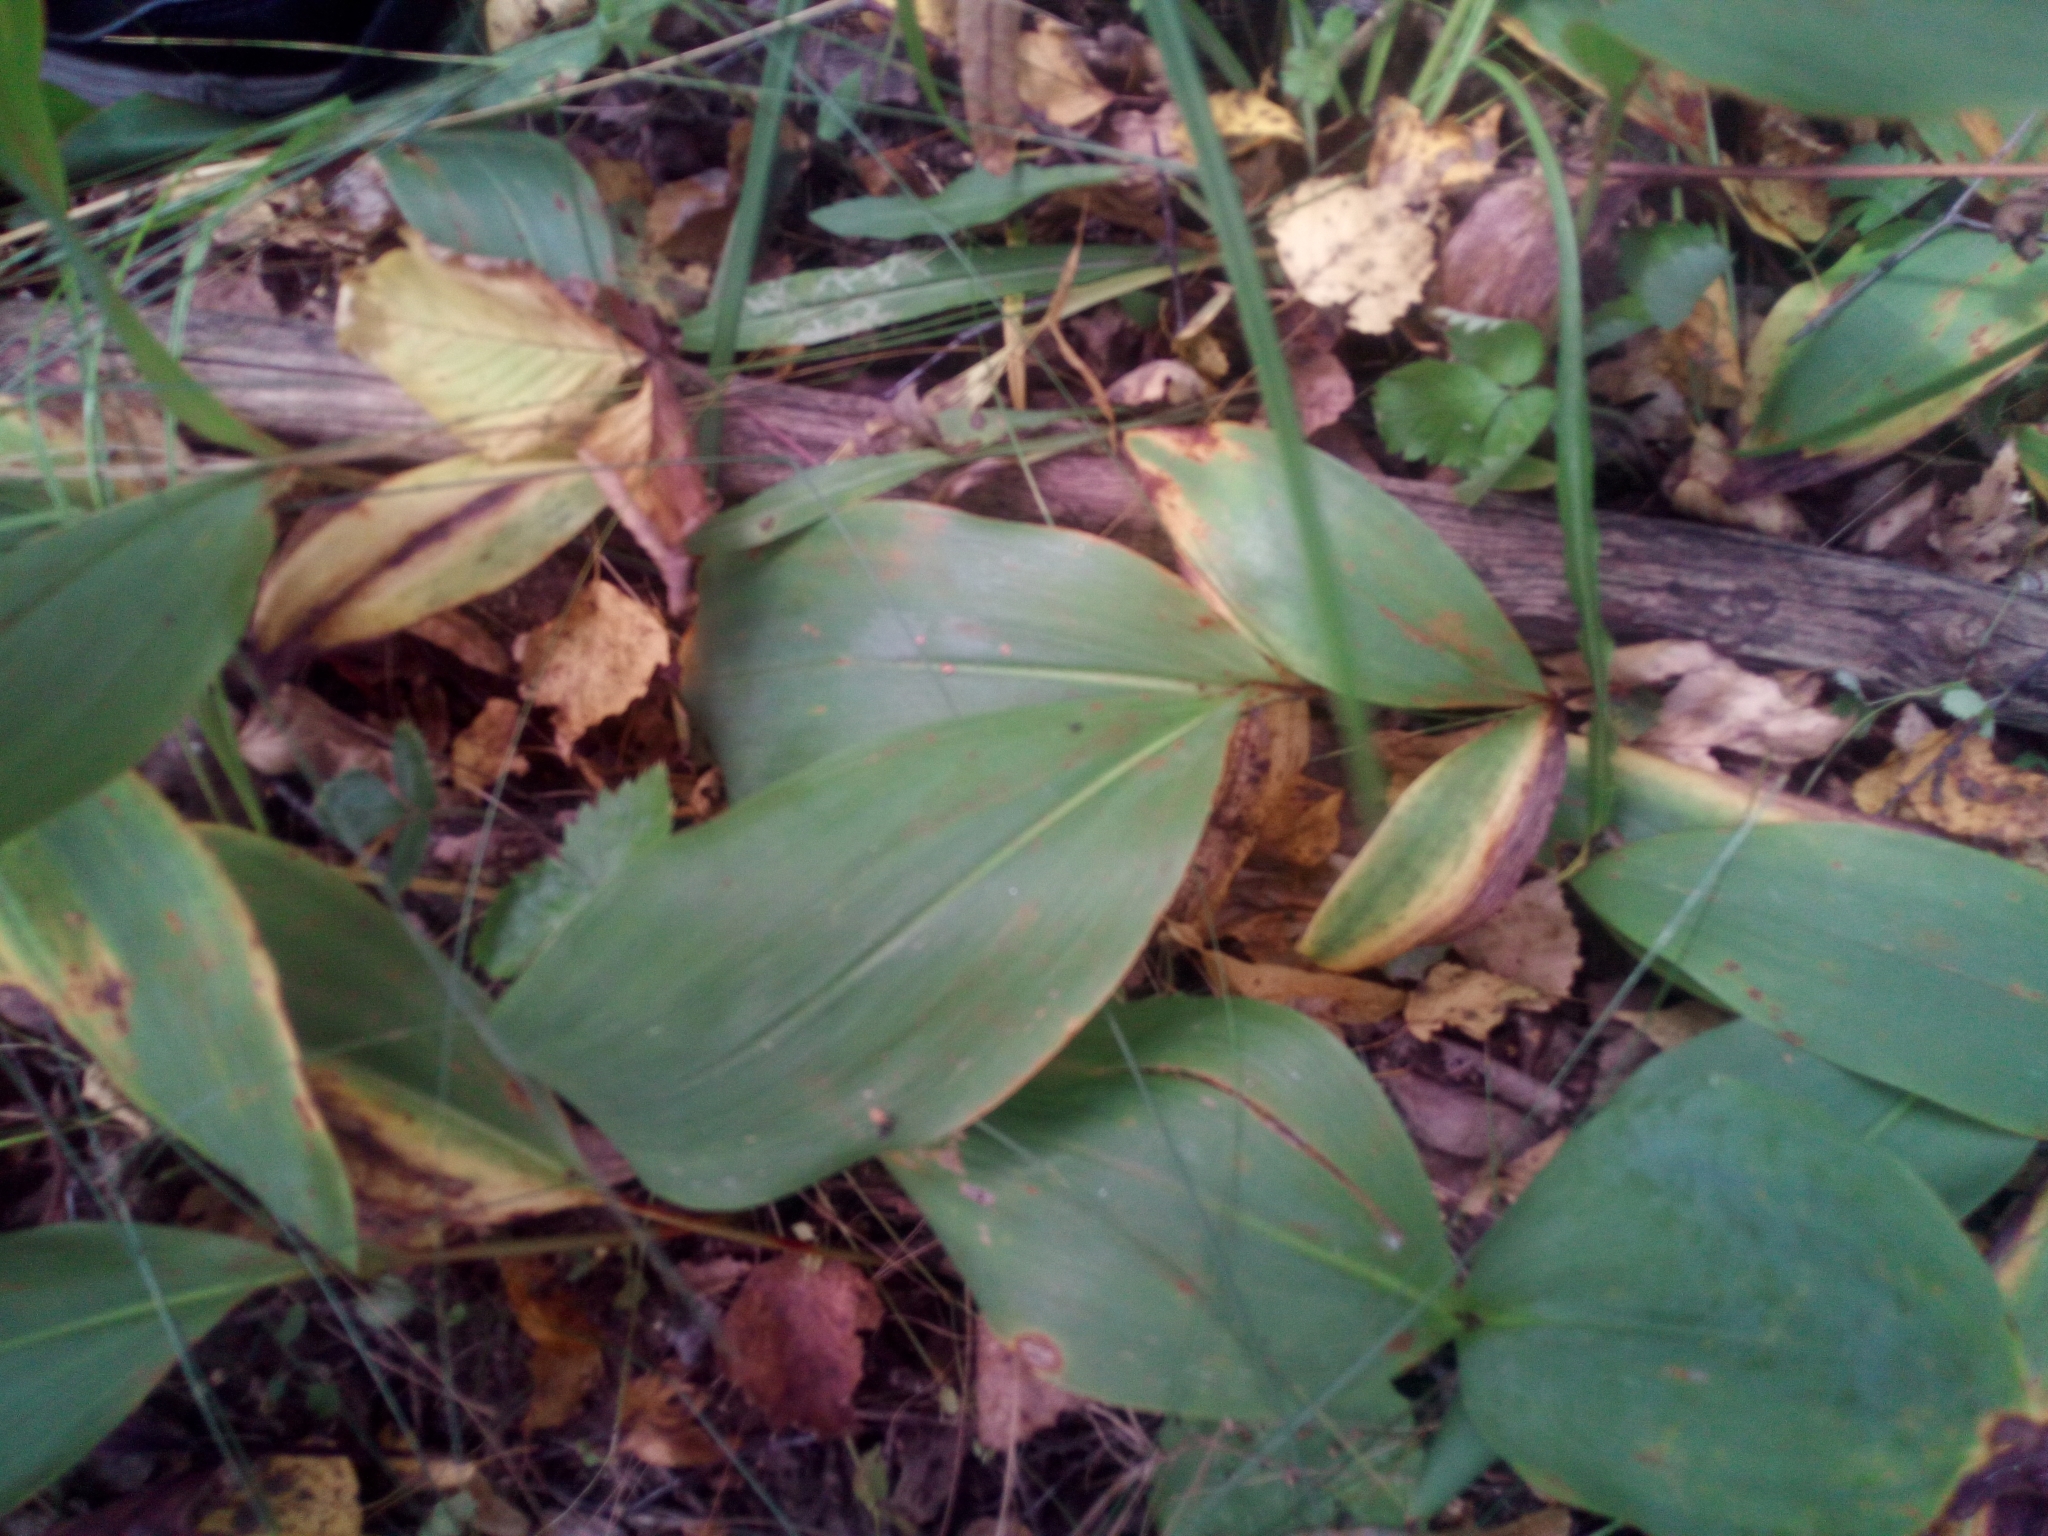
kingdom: Plantae
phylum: Tracheophyta
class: Liliopsida
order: Asparagales
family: Asparagaceae
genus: Convallaria
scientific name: Convallaria majalis
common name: Lily-of-the-valley
